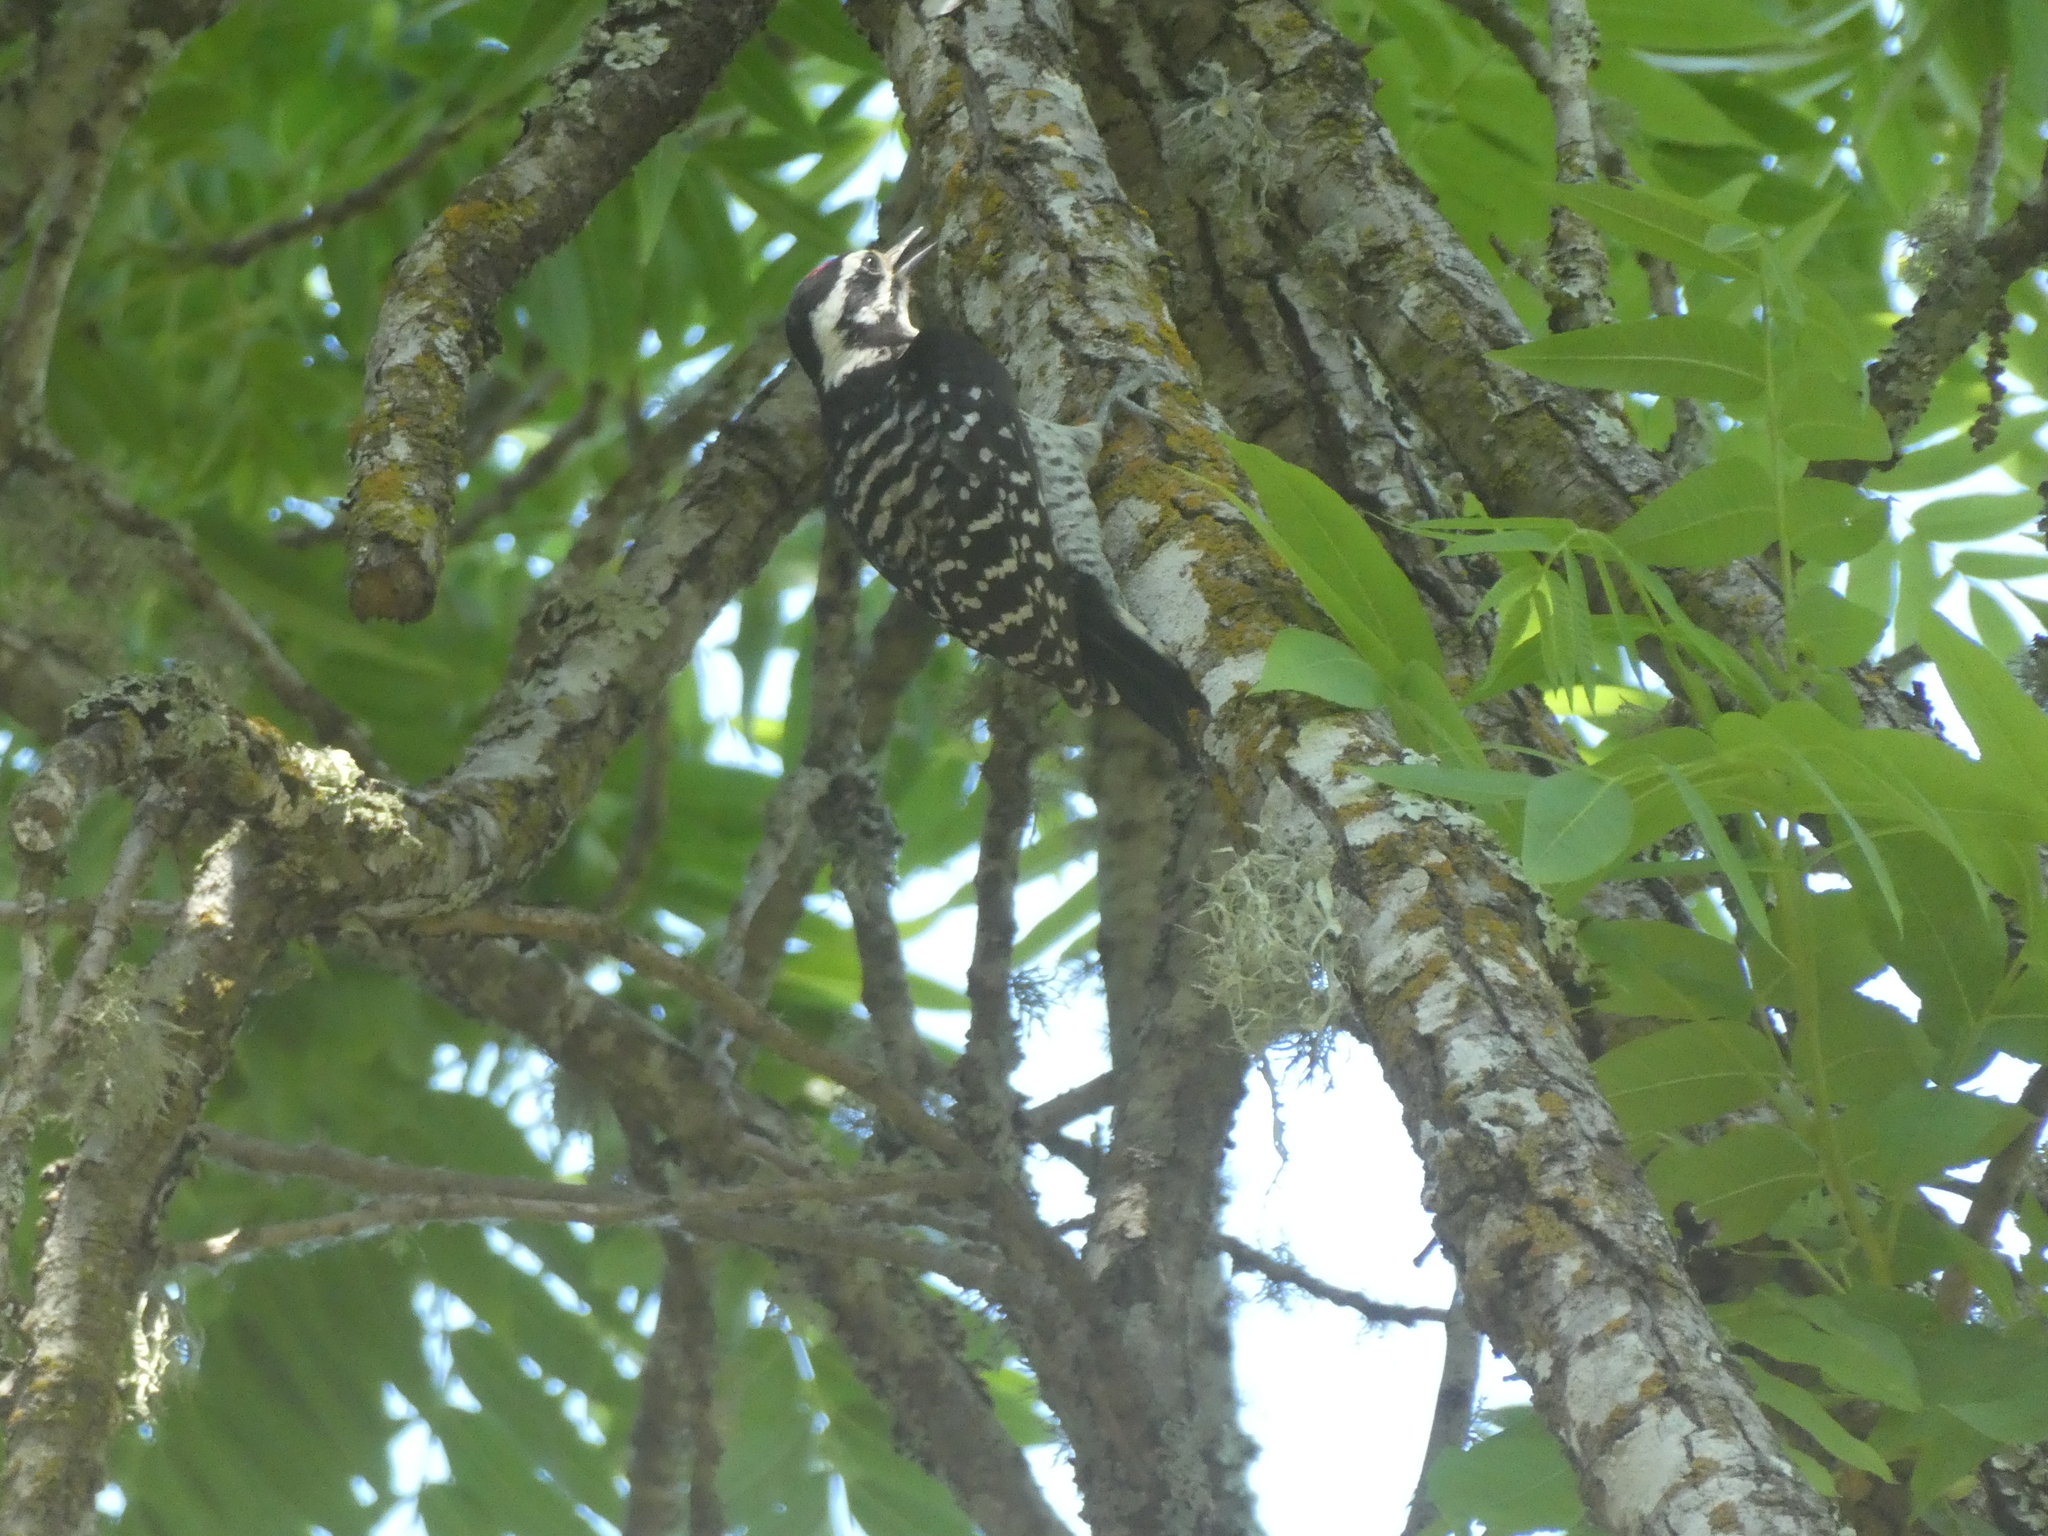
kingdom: Animalia
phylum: Chordata
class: Aves
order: Piciformes
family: Picidae
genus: Dryobates
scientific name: Dryobates nuttallii
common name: Nuttall's woodpecker
